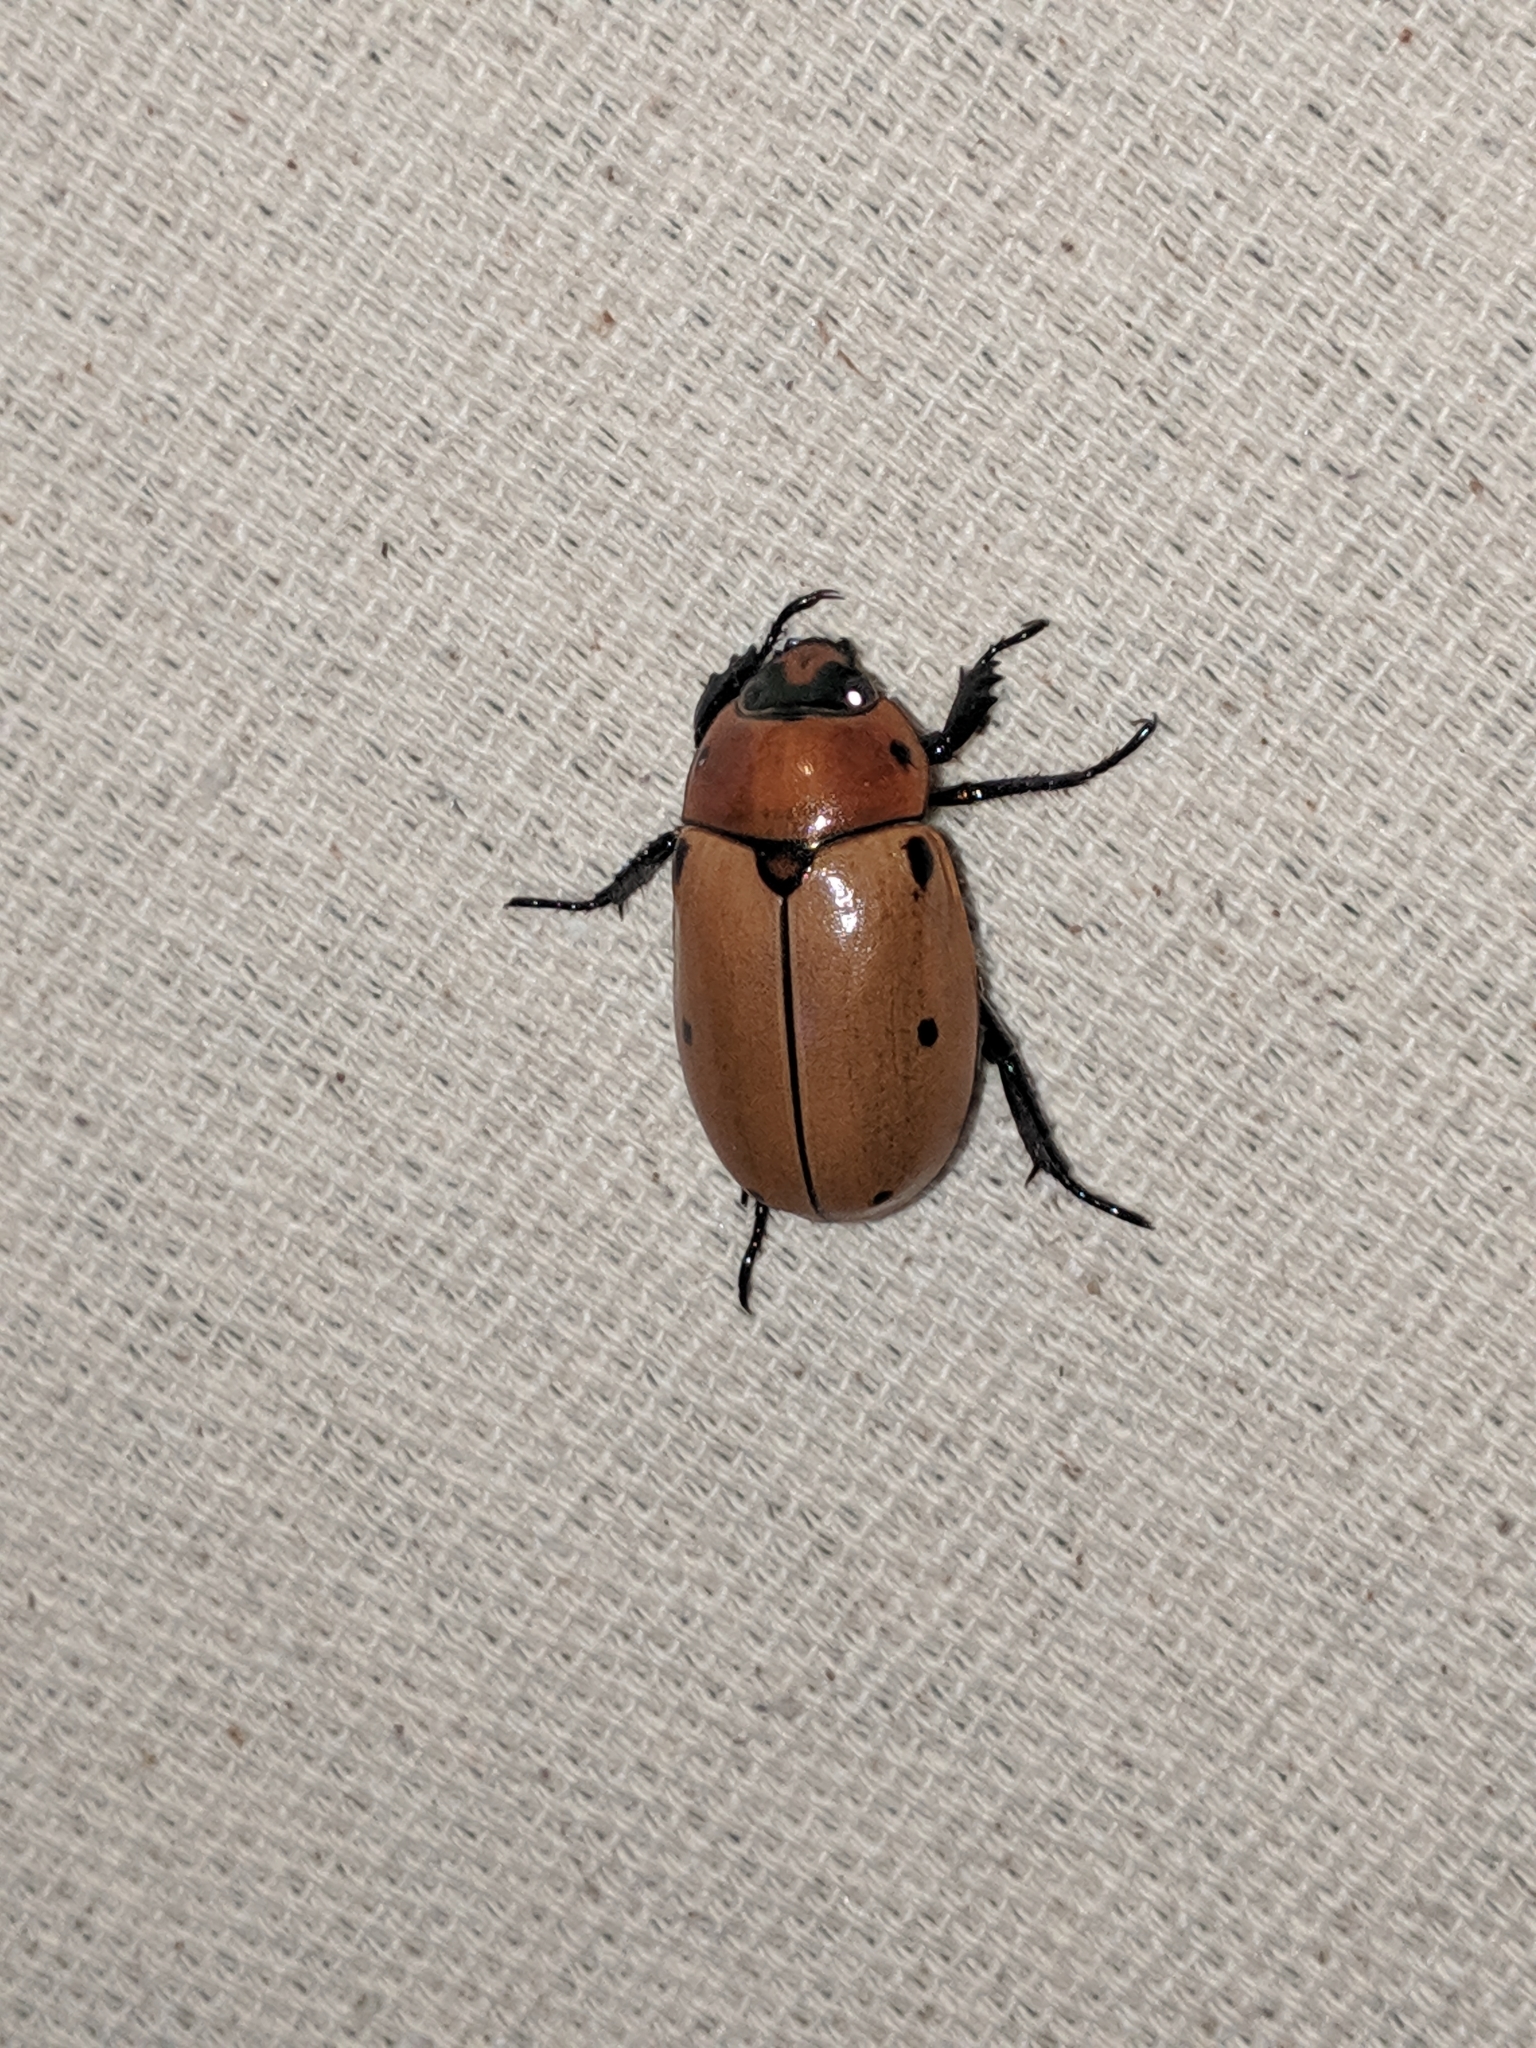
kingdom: Animalia
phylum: Arthropoda
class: Insecta
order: Coleoptera
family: Scarabaeidae
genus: Pelidnota
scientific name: Pelidnota punctata
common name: Grapevine beetle
